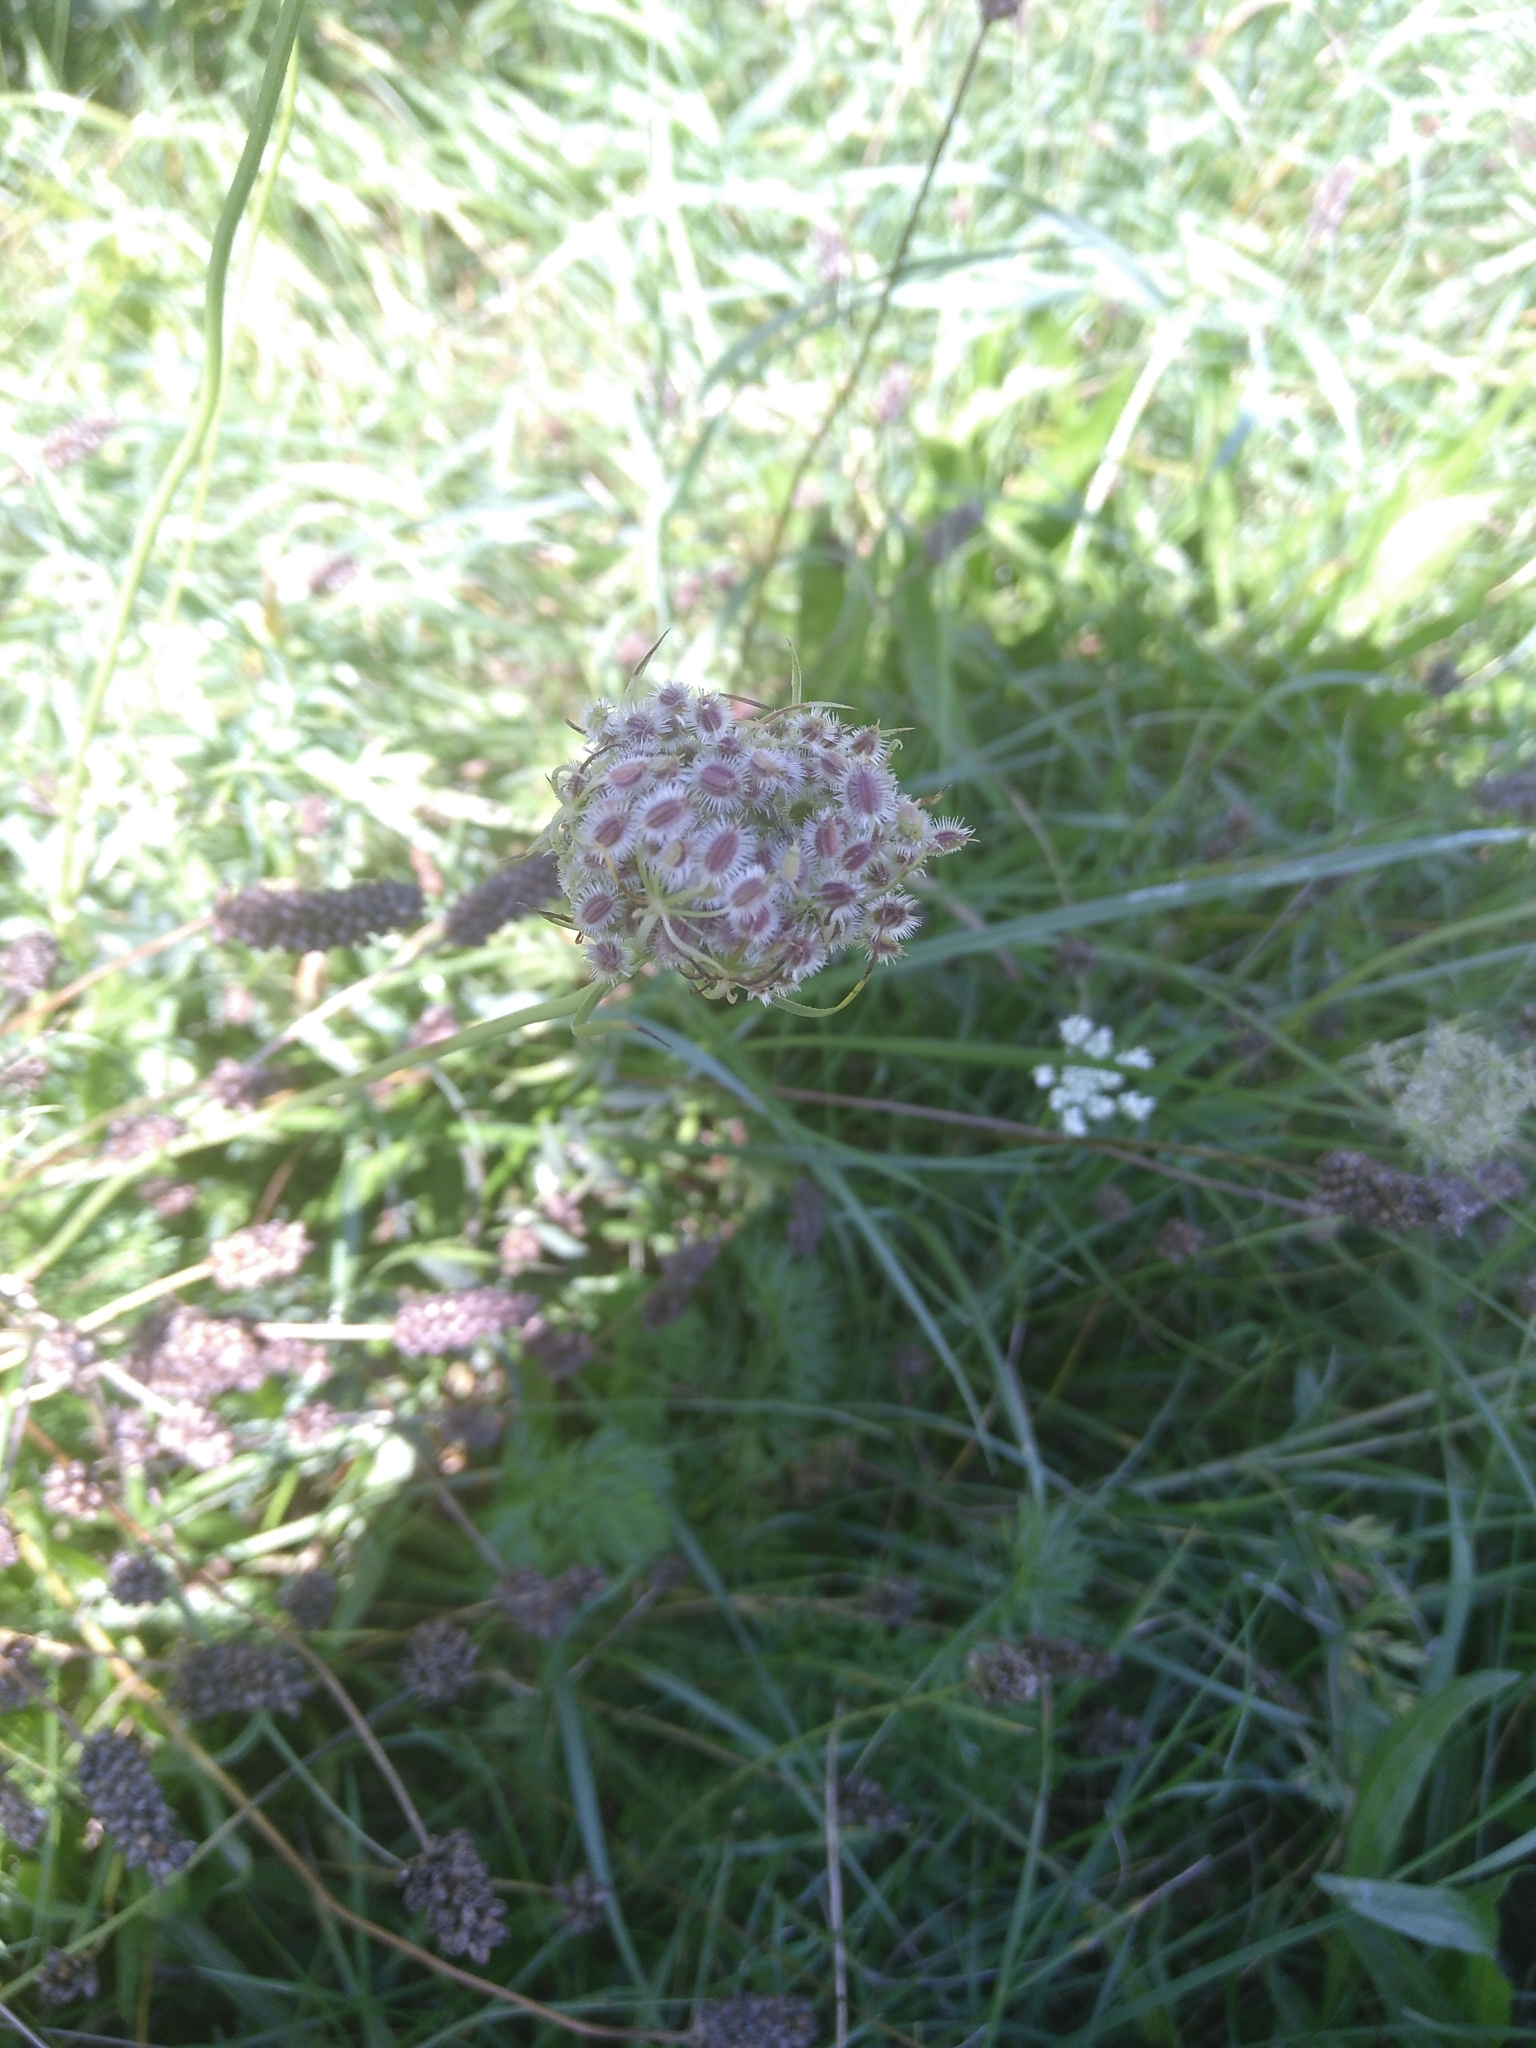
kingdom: Plantae
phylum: Tracheophyta
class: Magnoliopsida
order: Apiales
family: Apiaceae
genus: Daucus
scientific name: Daucus carota
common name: Wild carrot
